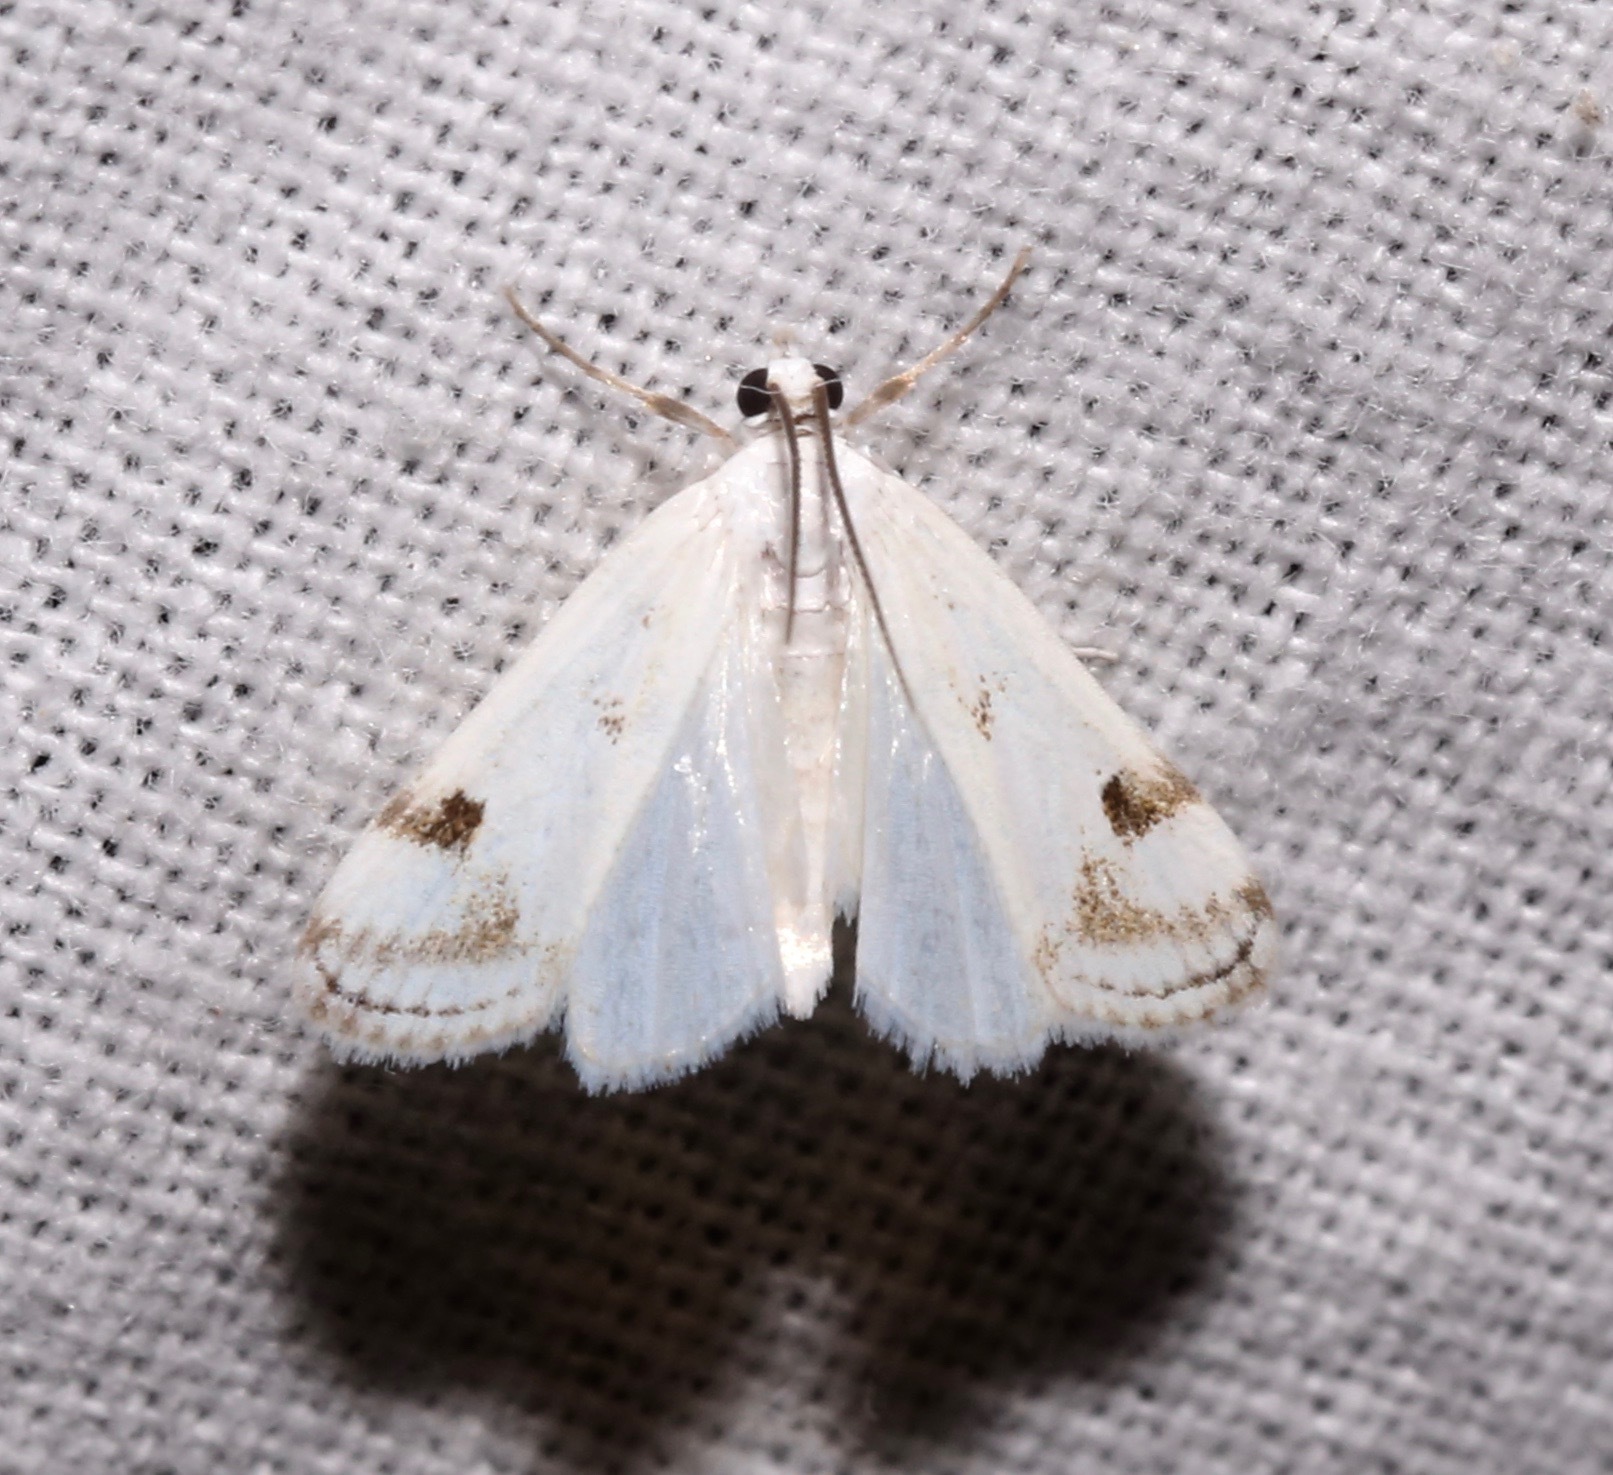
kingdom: Animalia
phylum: Arthropoda
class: Insecta
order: Lepidoptera
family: Crambidae
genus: Parapoynx
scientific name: Parapoynx maculalis
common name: Polymorphic pondweed moth
